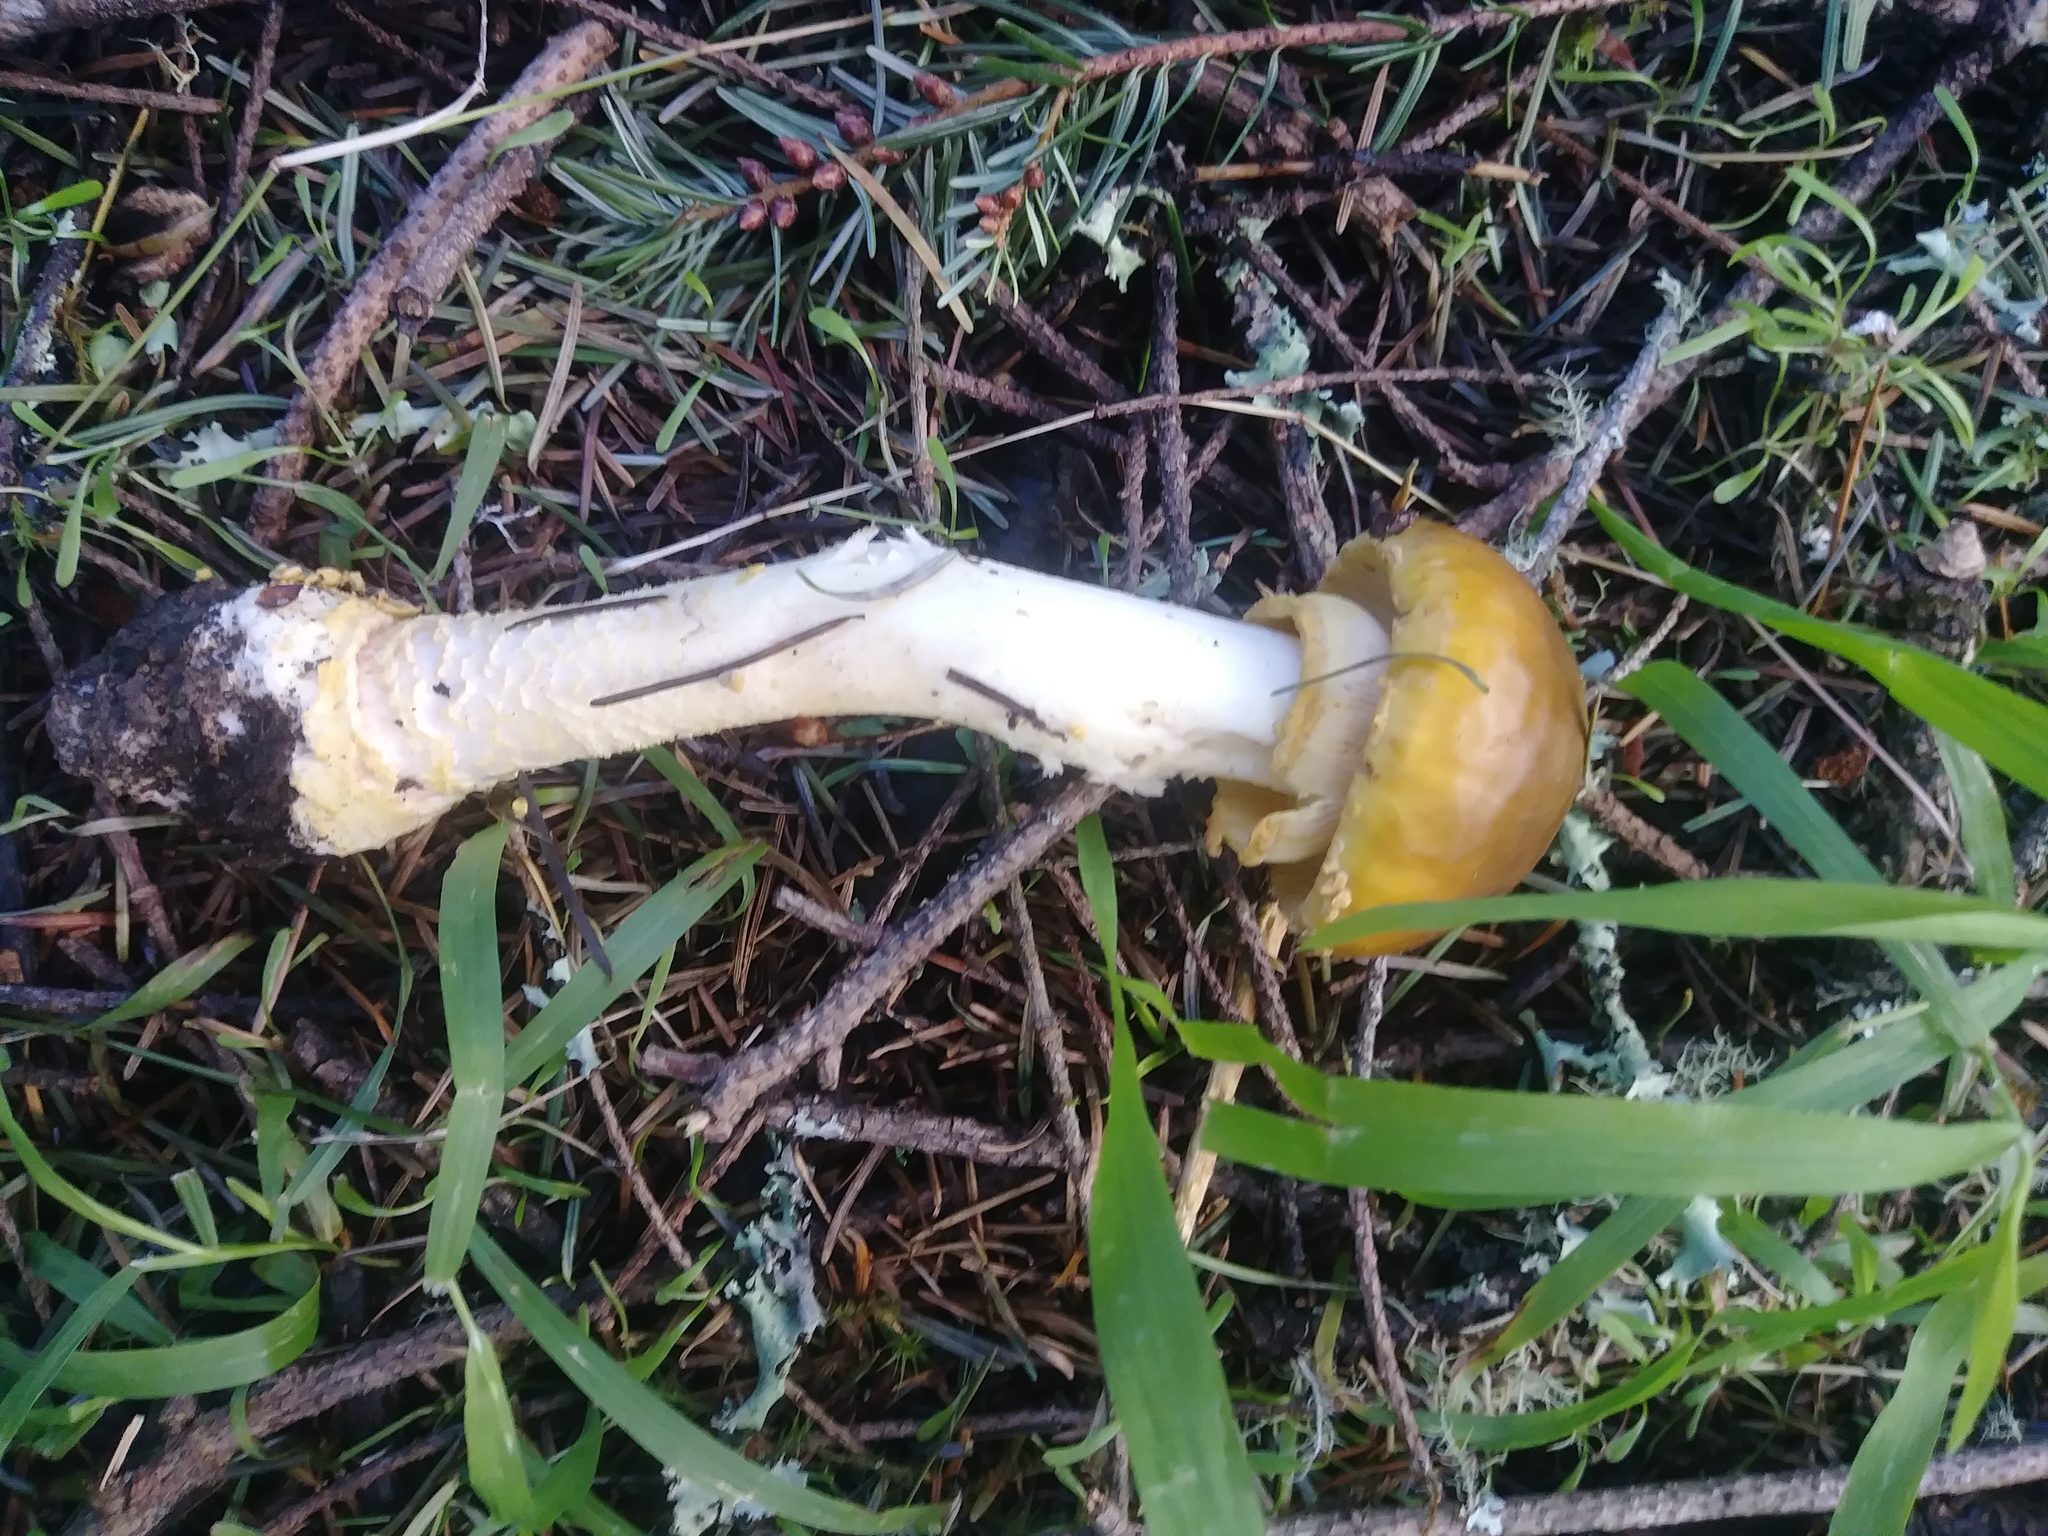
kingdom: Fungi
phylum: Basidiomycota
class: Agaricomycetes
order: Agaricales
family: Amanitaceae
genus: Amanita
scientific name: Amanita augusta
